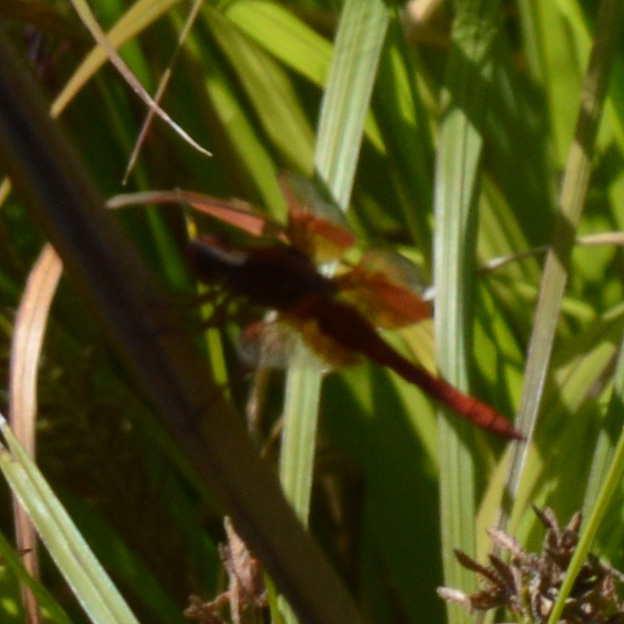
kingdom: Animalia
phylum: Arthropoda
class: Insecta
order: Odonata
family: Libellulidae
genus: Libellula
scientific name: Libellula saturata
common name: Flame skimmer
